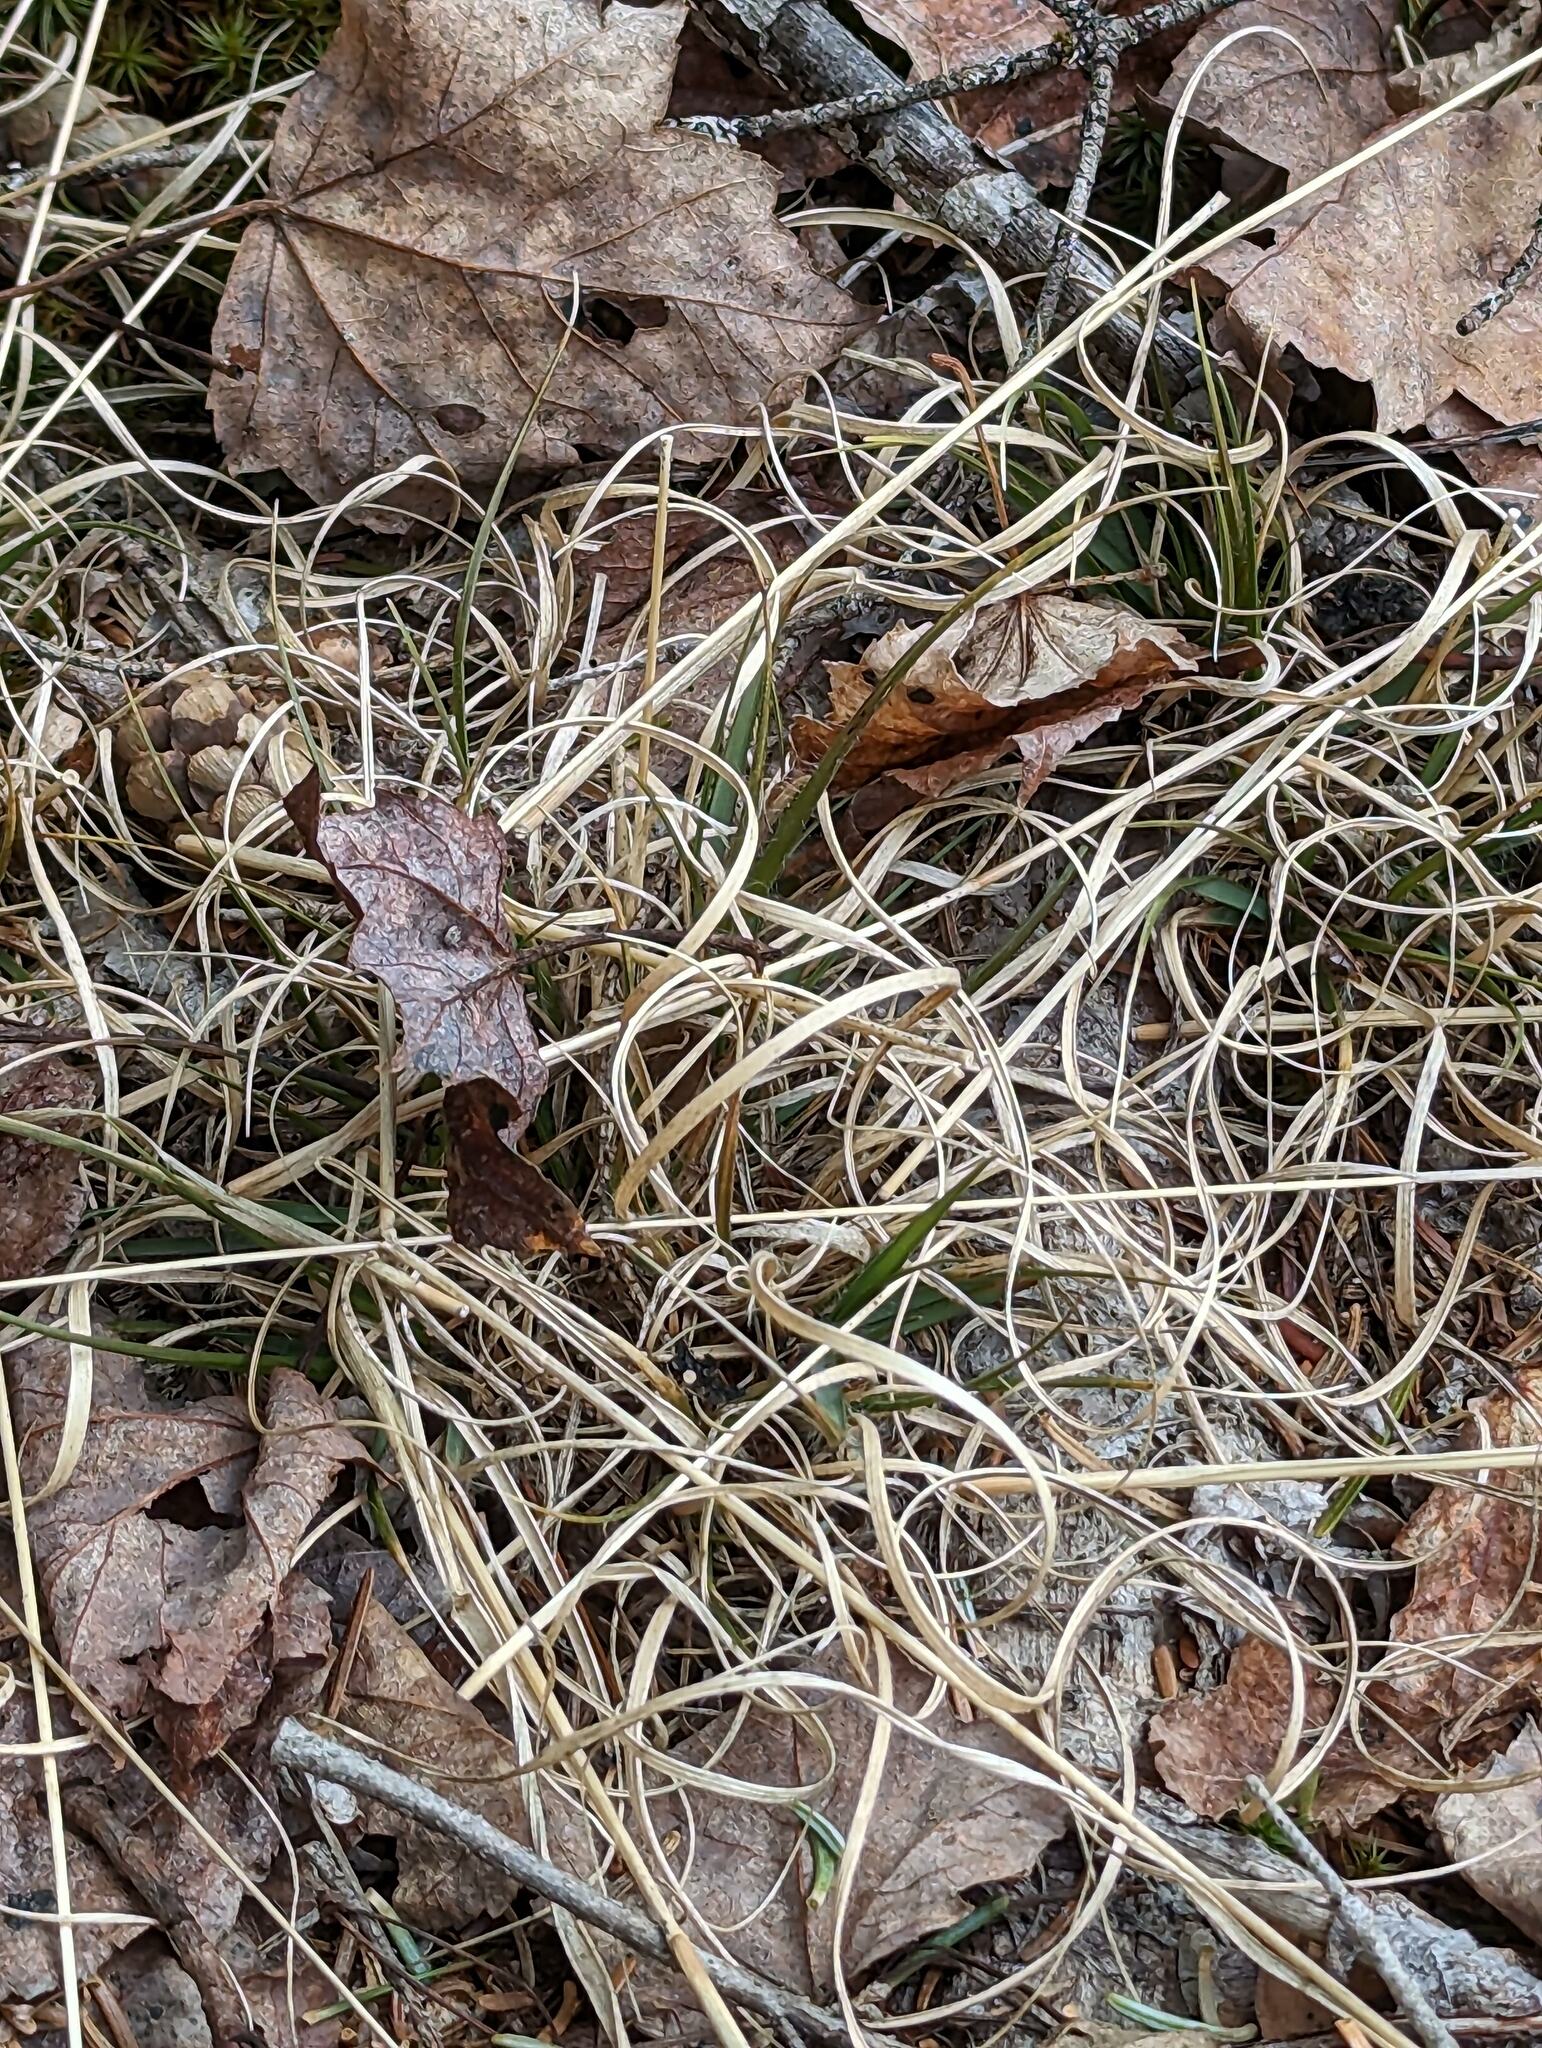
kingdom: Plantae
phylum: Tracheophyta
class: Liliopsida
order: Poales
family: Poaceae
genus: Danthonia
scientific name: Danthonia spicata
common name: Common wild oatgrass
